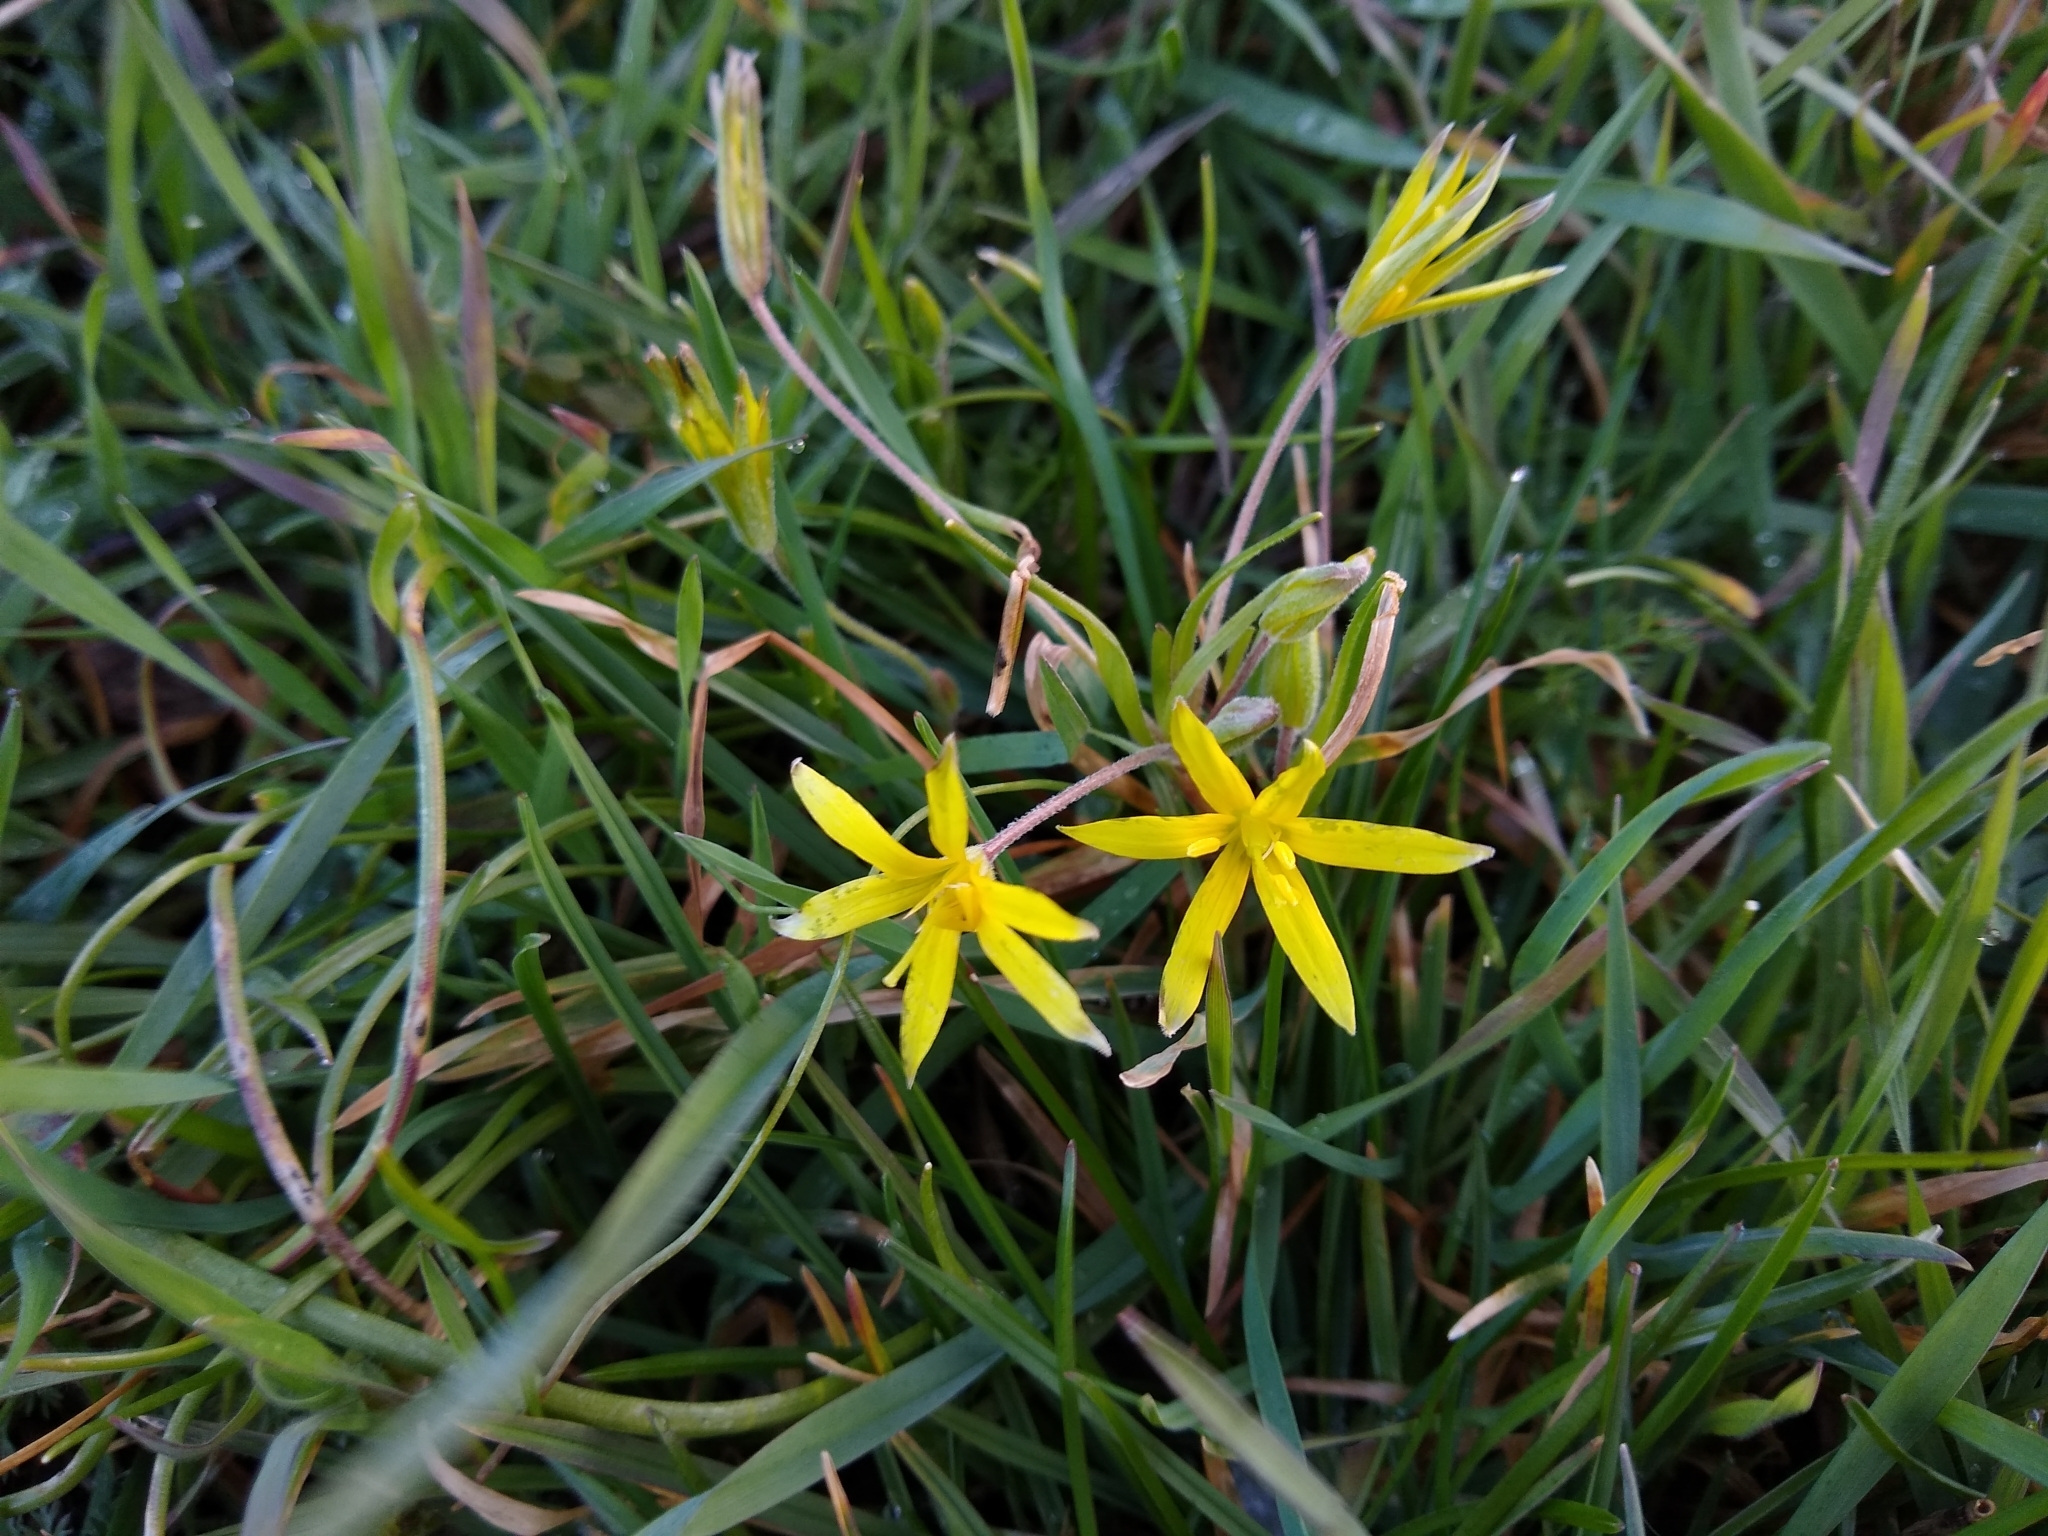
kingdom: Plantae
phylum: Tracheophyta
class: Liliopsida
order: Liliales
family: Liliaceae
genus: Gagea
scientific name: Gagea villosa
